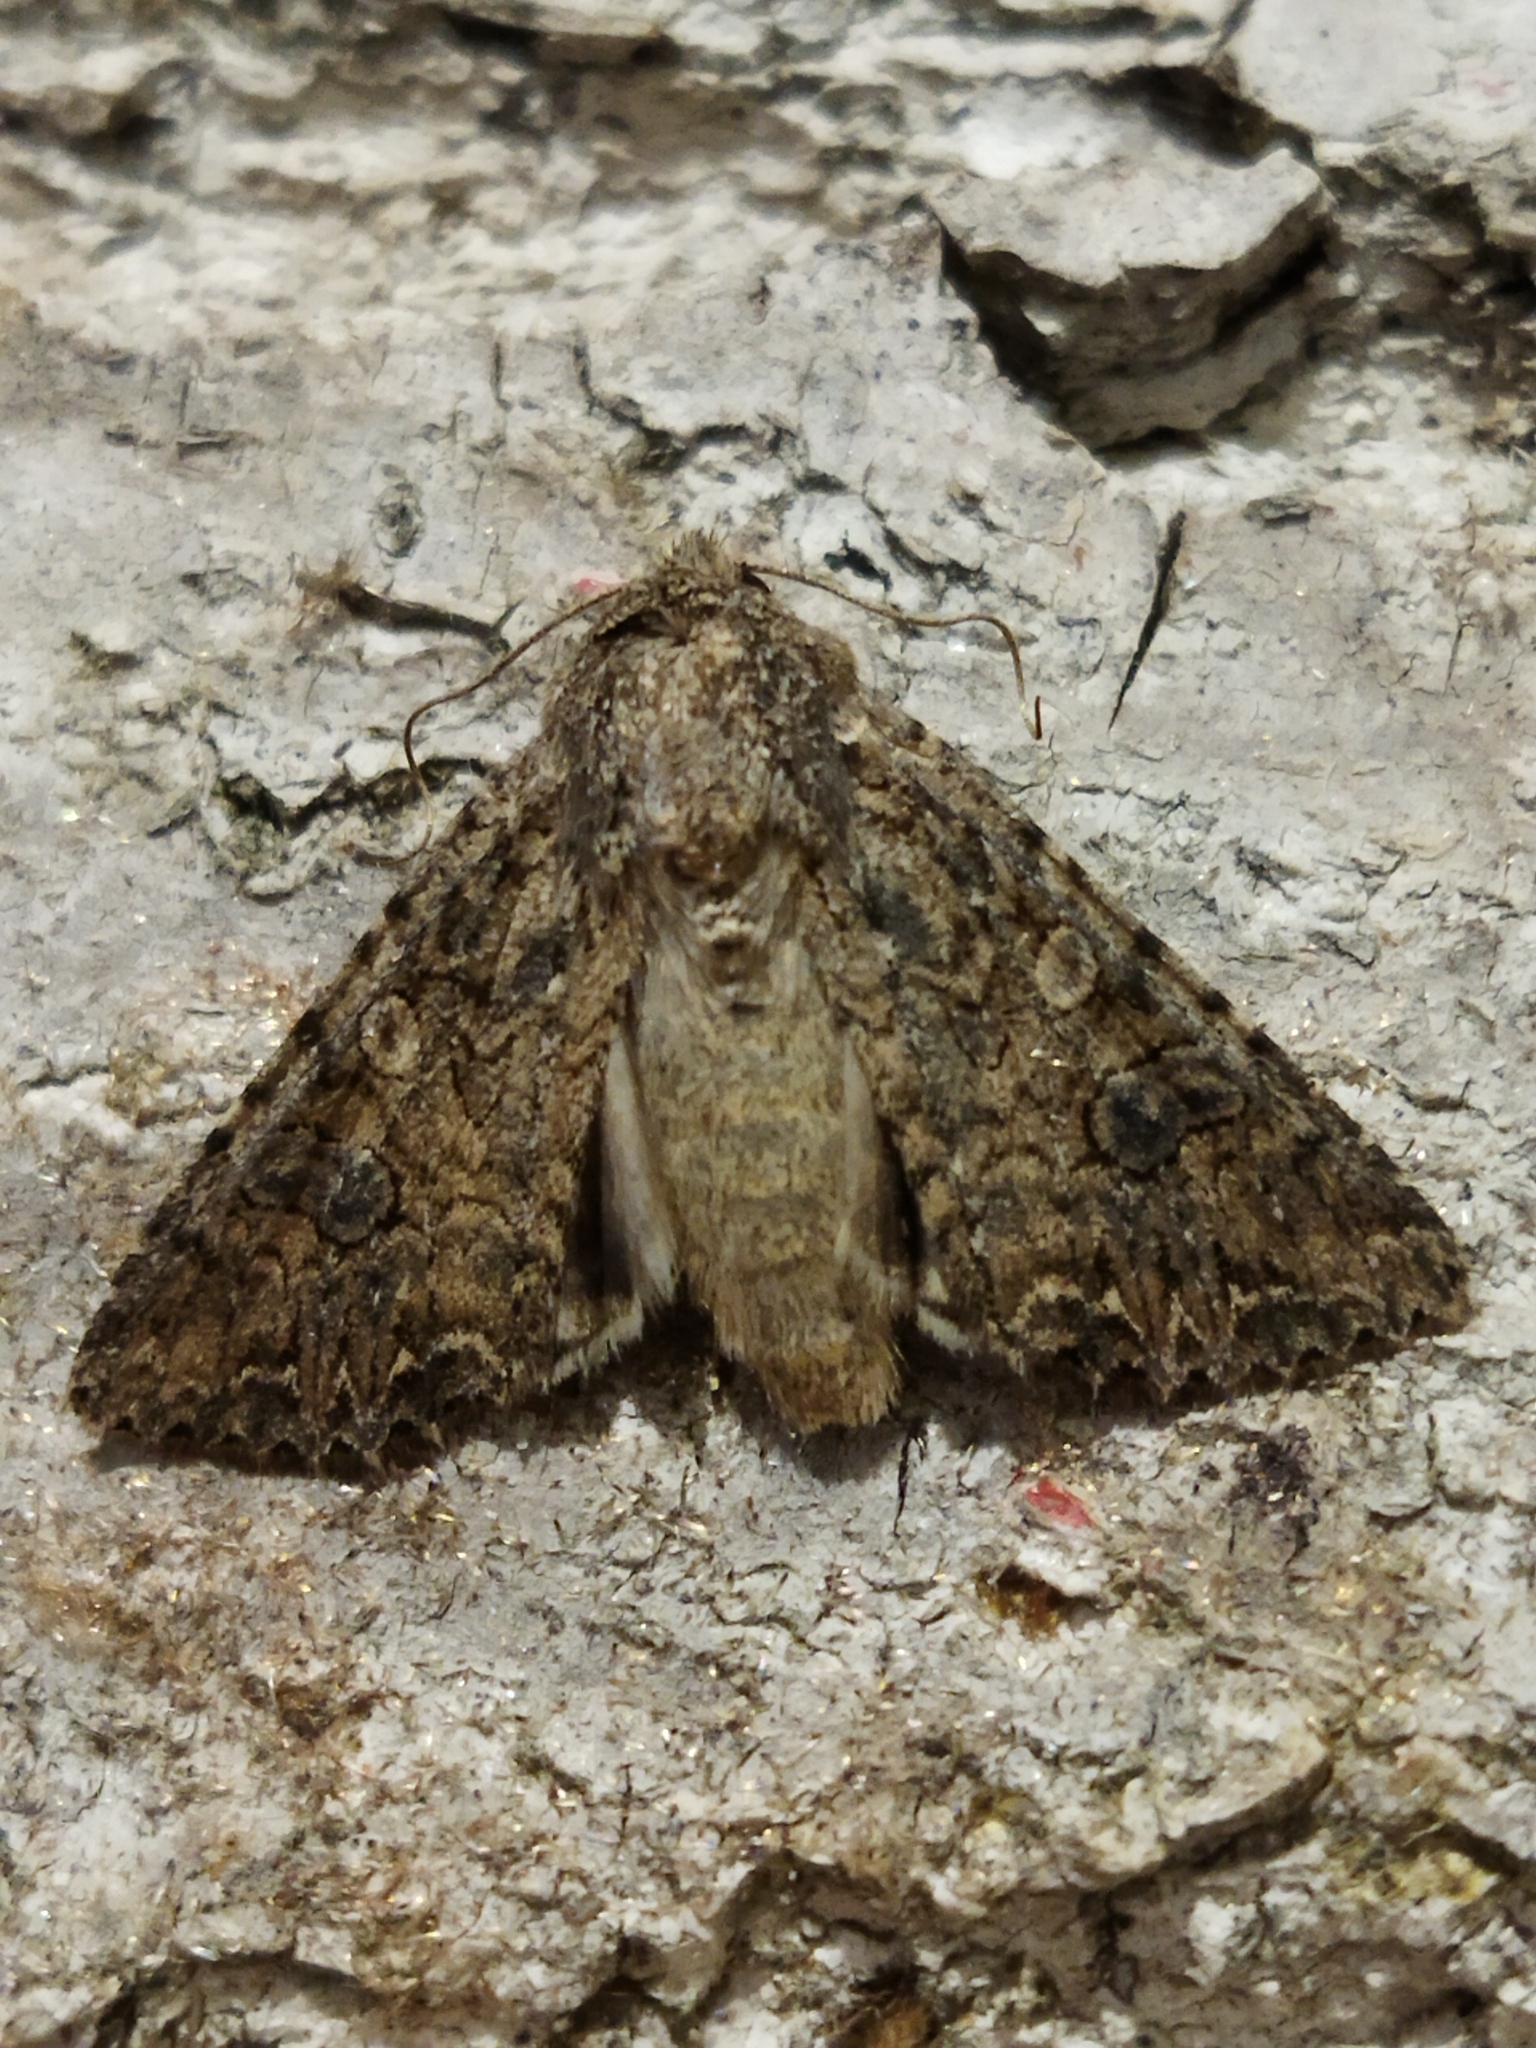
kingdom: Animalia
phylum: Arthropoda
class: Insecta
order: Lepidoptera
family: Noctuidae
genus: Anarta
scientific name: Anarta trifolii
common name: Clover cutworm moth
